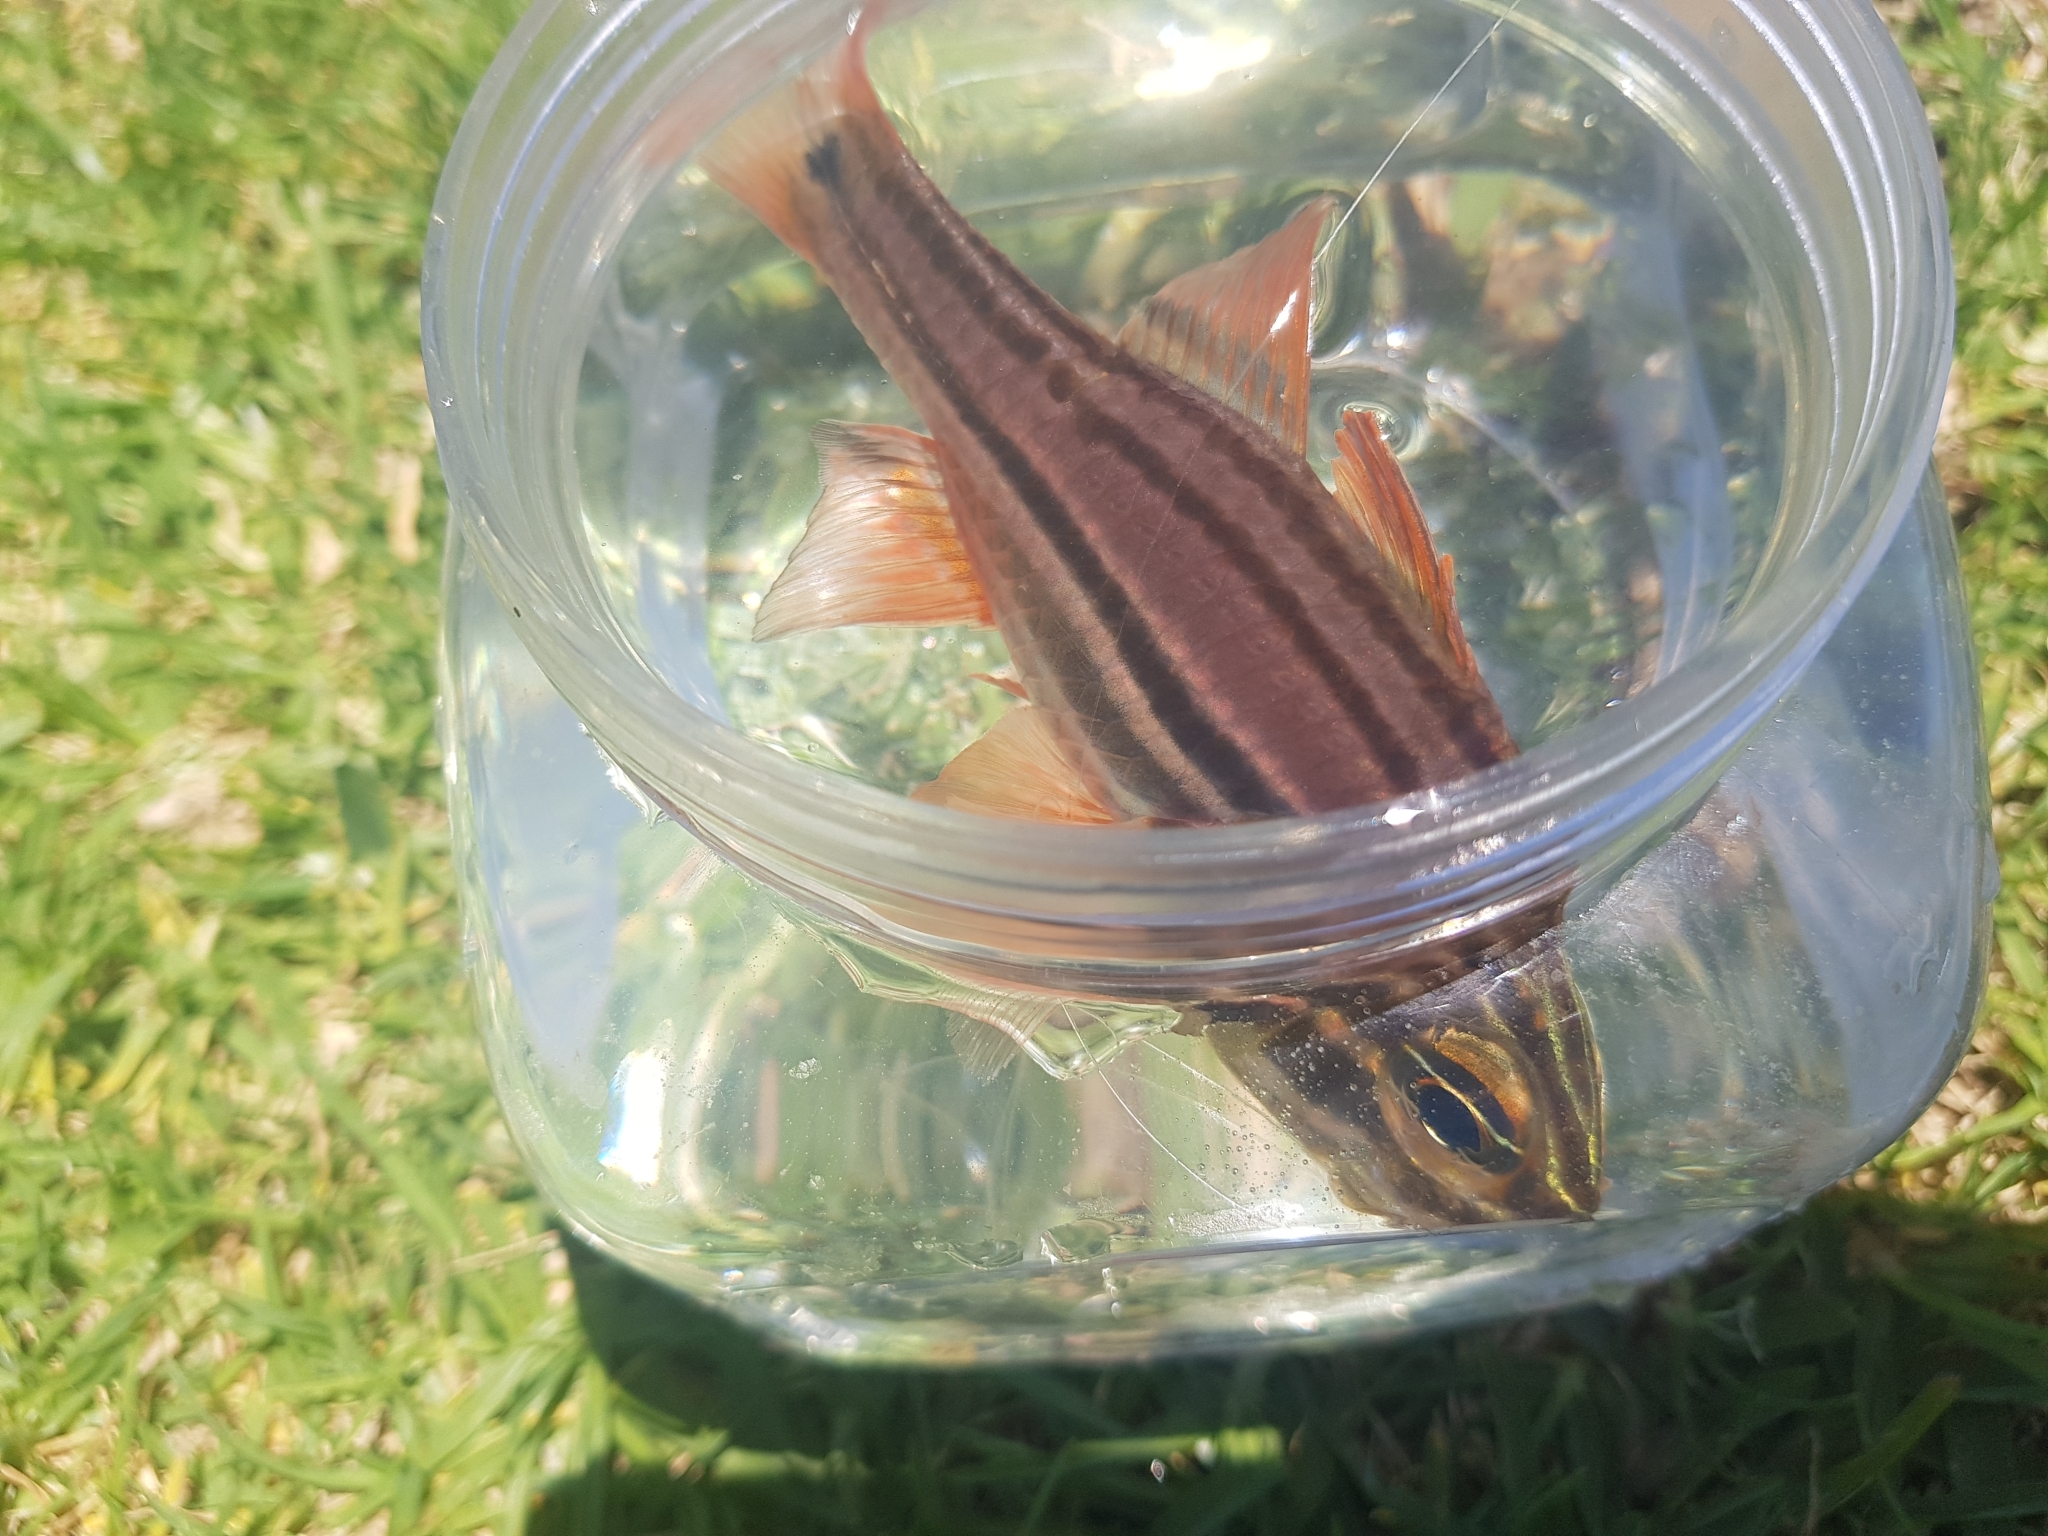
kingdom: Animalia
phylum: Chordata
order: Perciformes
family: Apogonidae
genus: Ostorhinchus
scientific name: Ostorhinchus limenus
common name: Four-banded soldierfish
